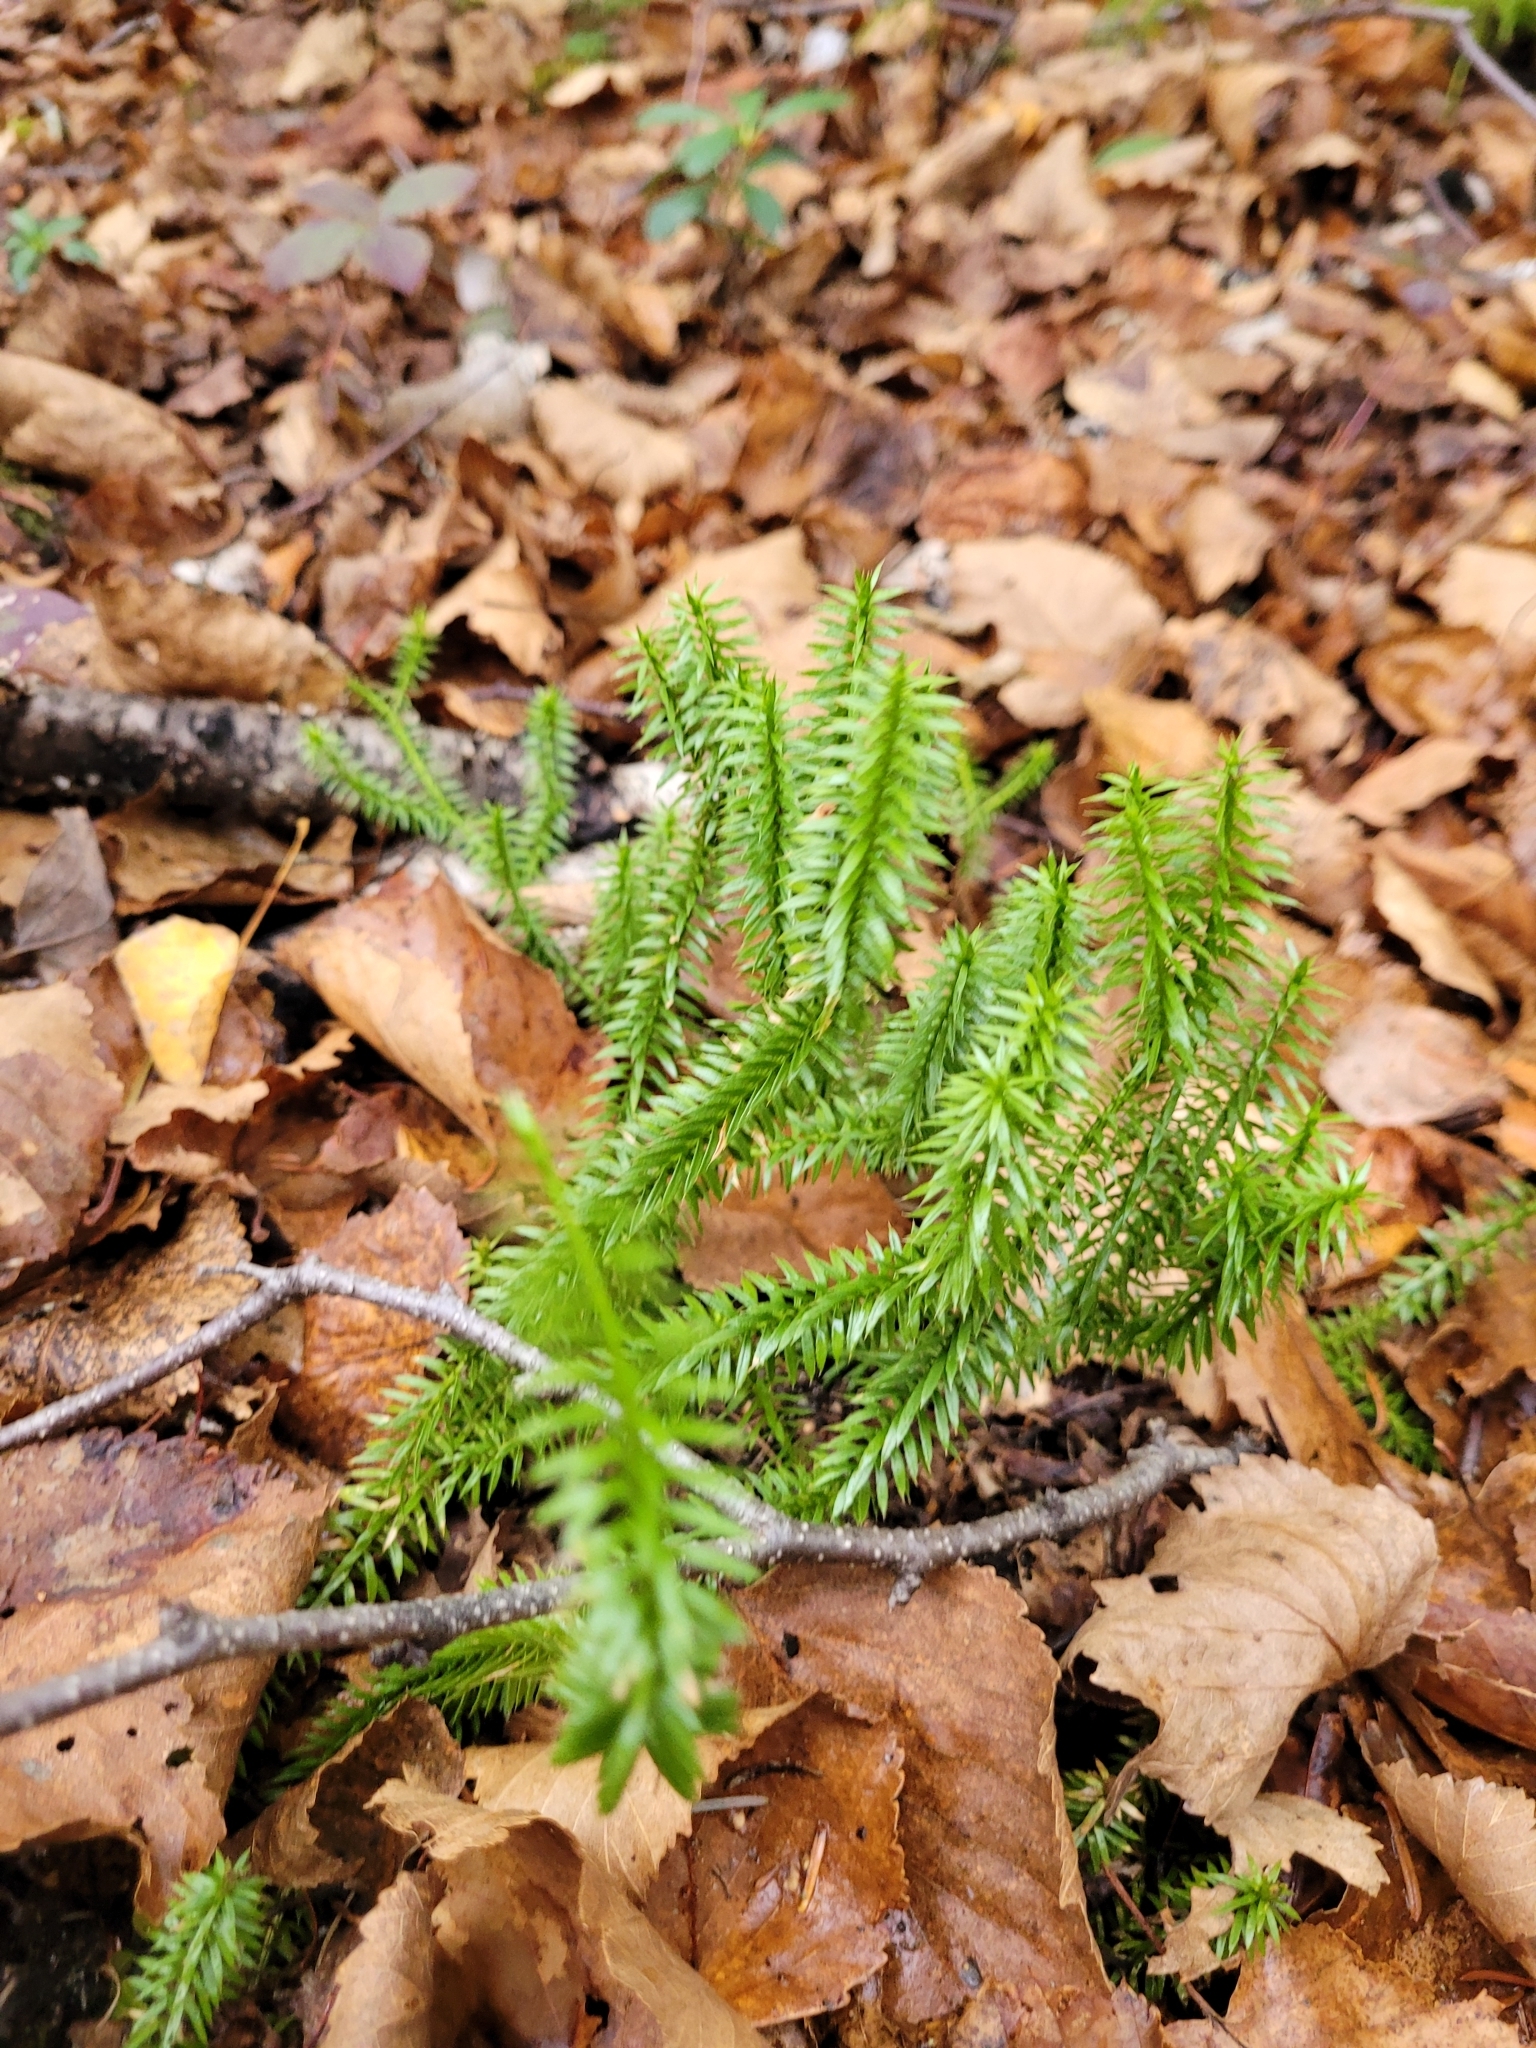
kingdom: Plantae
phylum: Tracheophyta
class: Lycopodiopsida
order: Lycopodiales
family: Lycopodiaceae
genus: Spinulum
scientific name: Spinulum annotinum
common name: Interrupted club-moss
